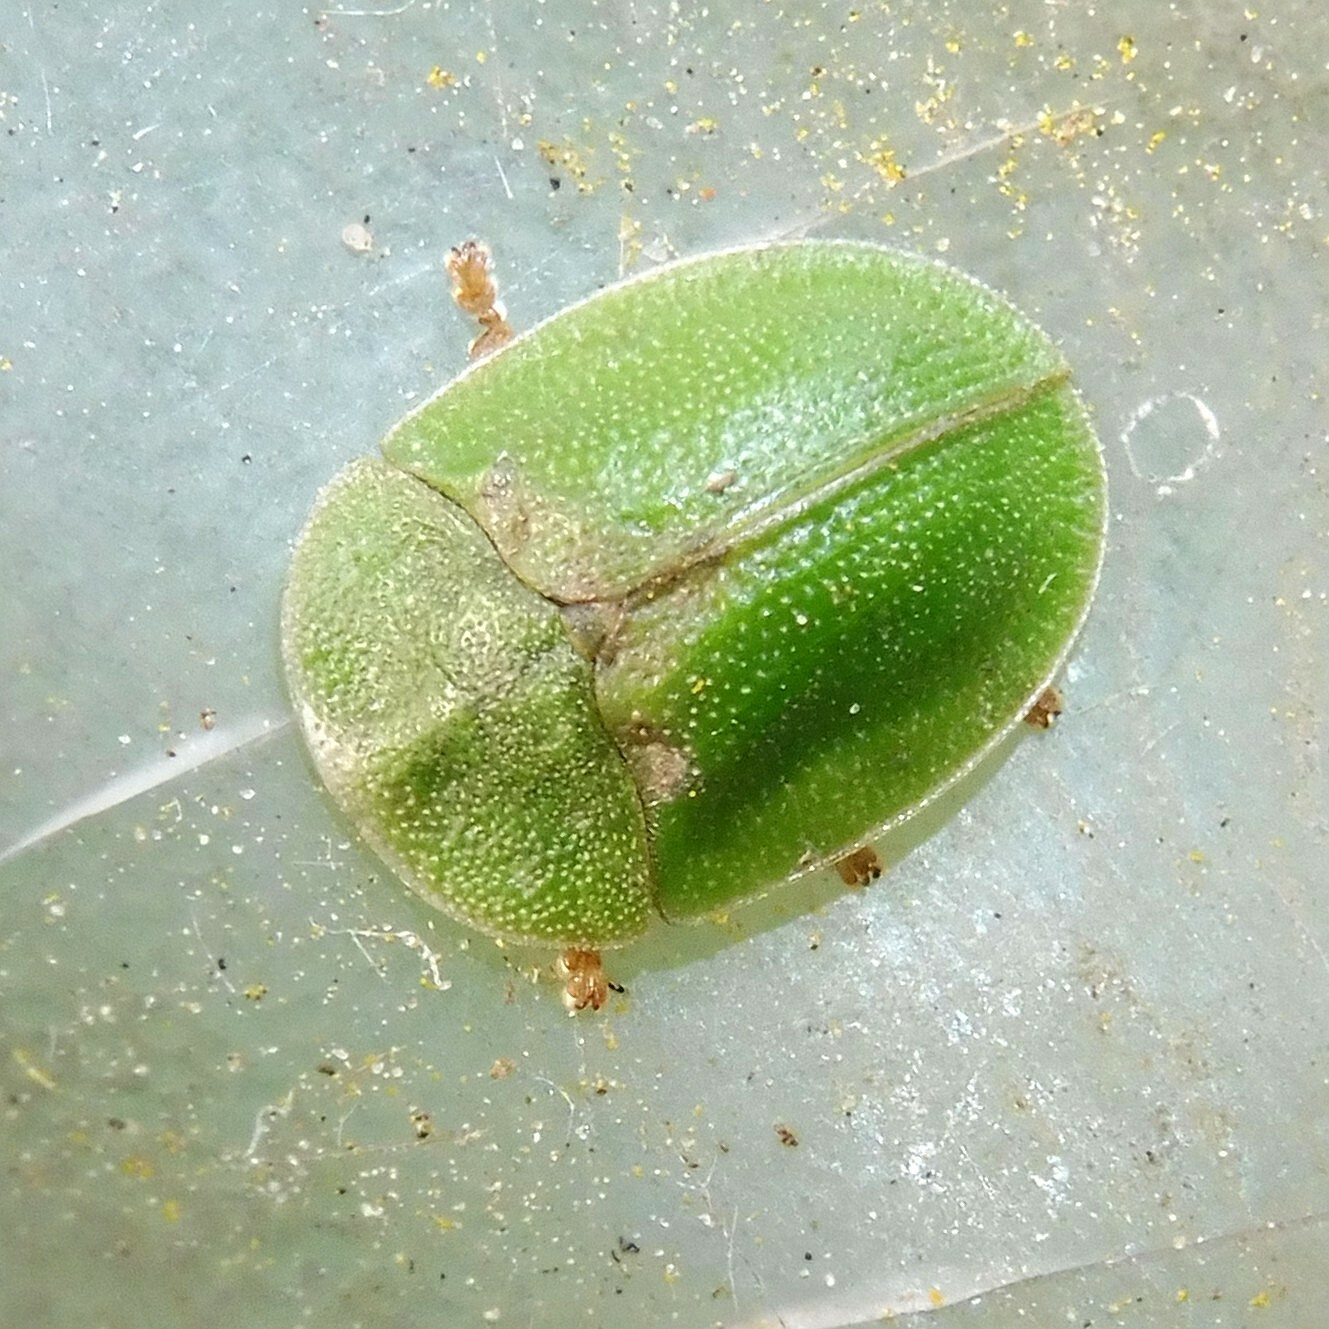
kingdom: Animalia
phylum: Arthropoda
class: Insecta
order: Coleoptera
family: Chrysomelidae
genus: Cassida
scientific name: Cassida rubiginosa
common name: Thistle tortoise beetle
